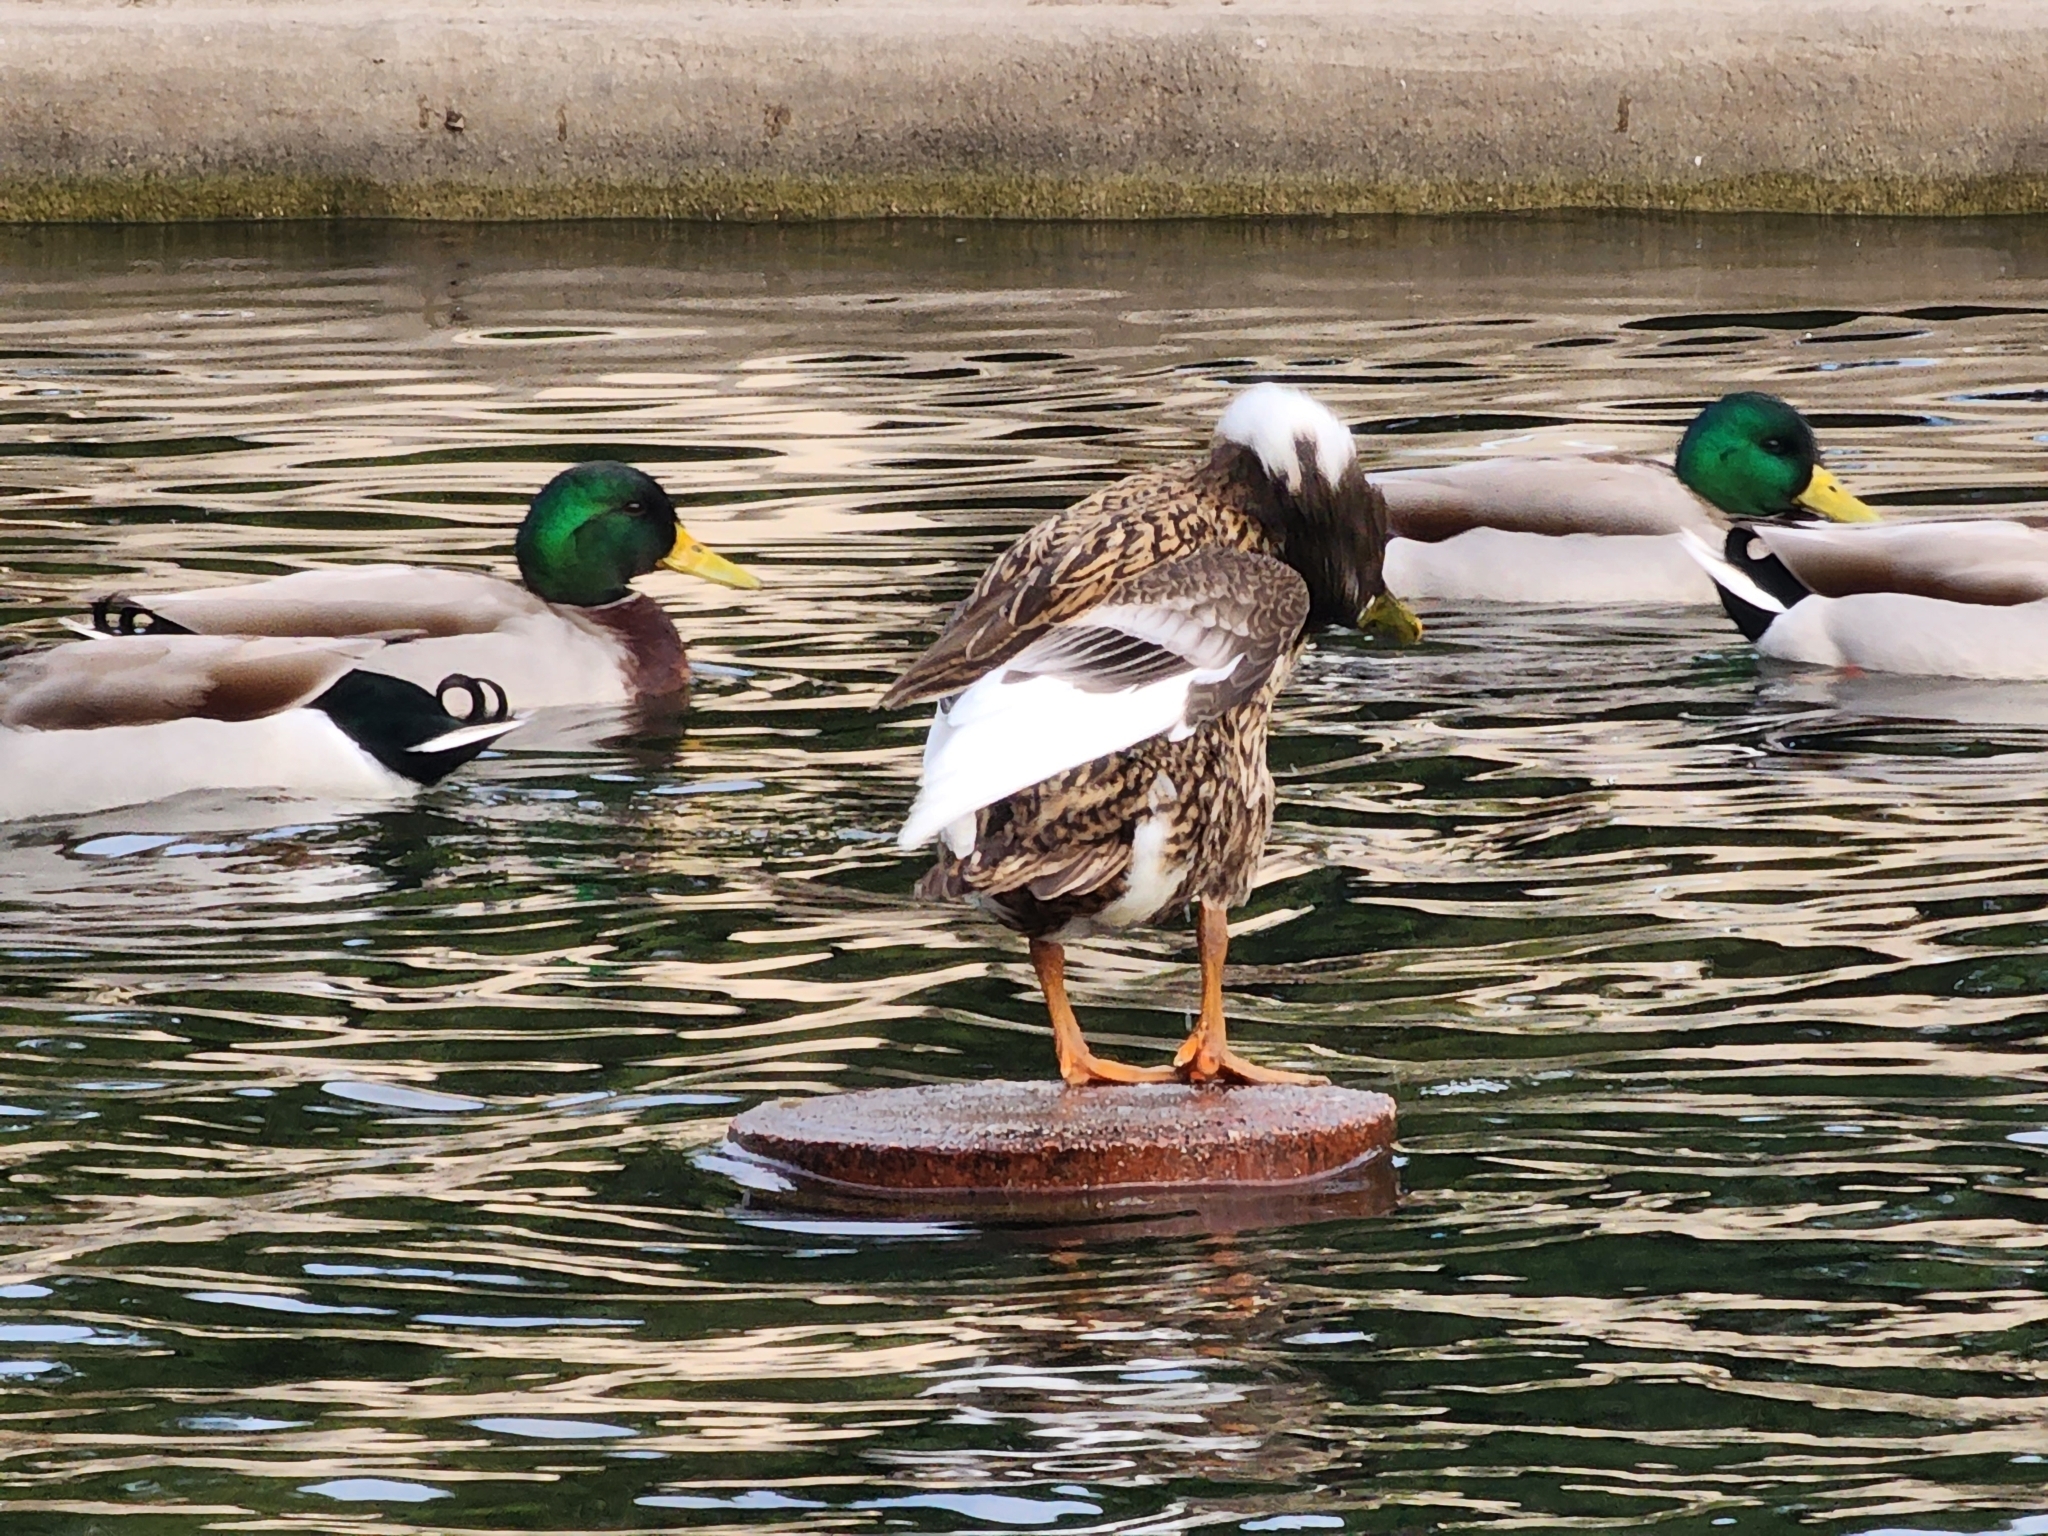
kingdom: Animalia
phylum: Chordata
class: Aves
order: Anseriformes
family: Anatidae
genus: Anas
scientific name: Anas platyrhynchos
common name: Mallard
